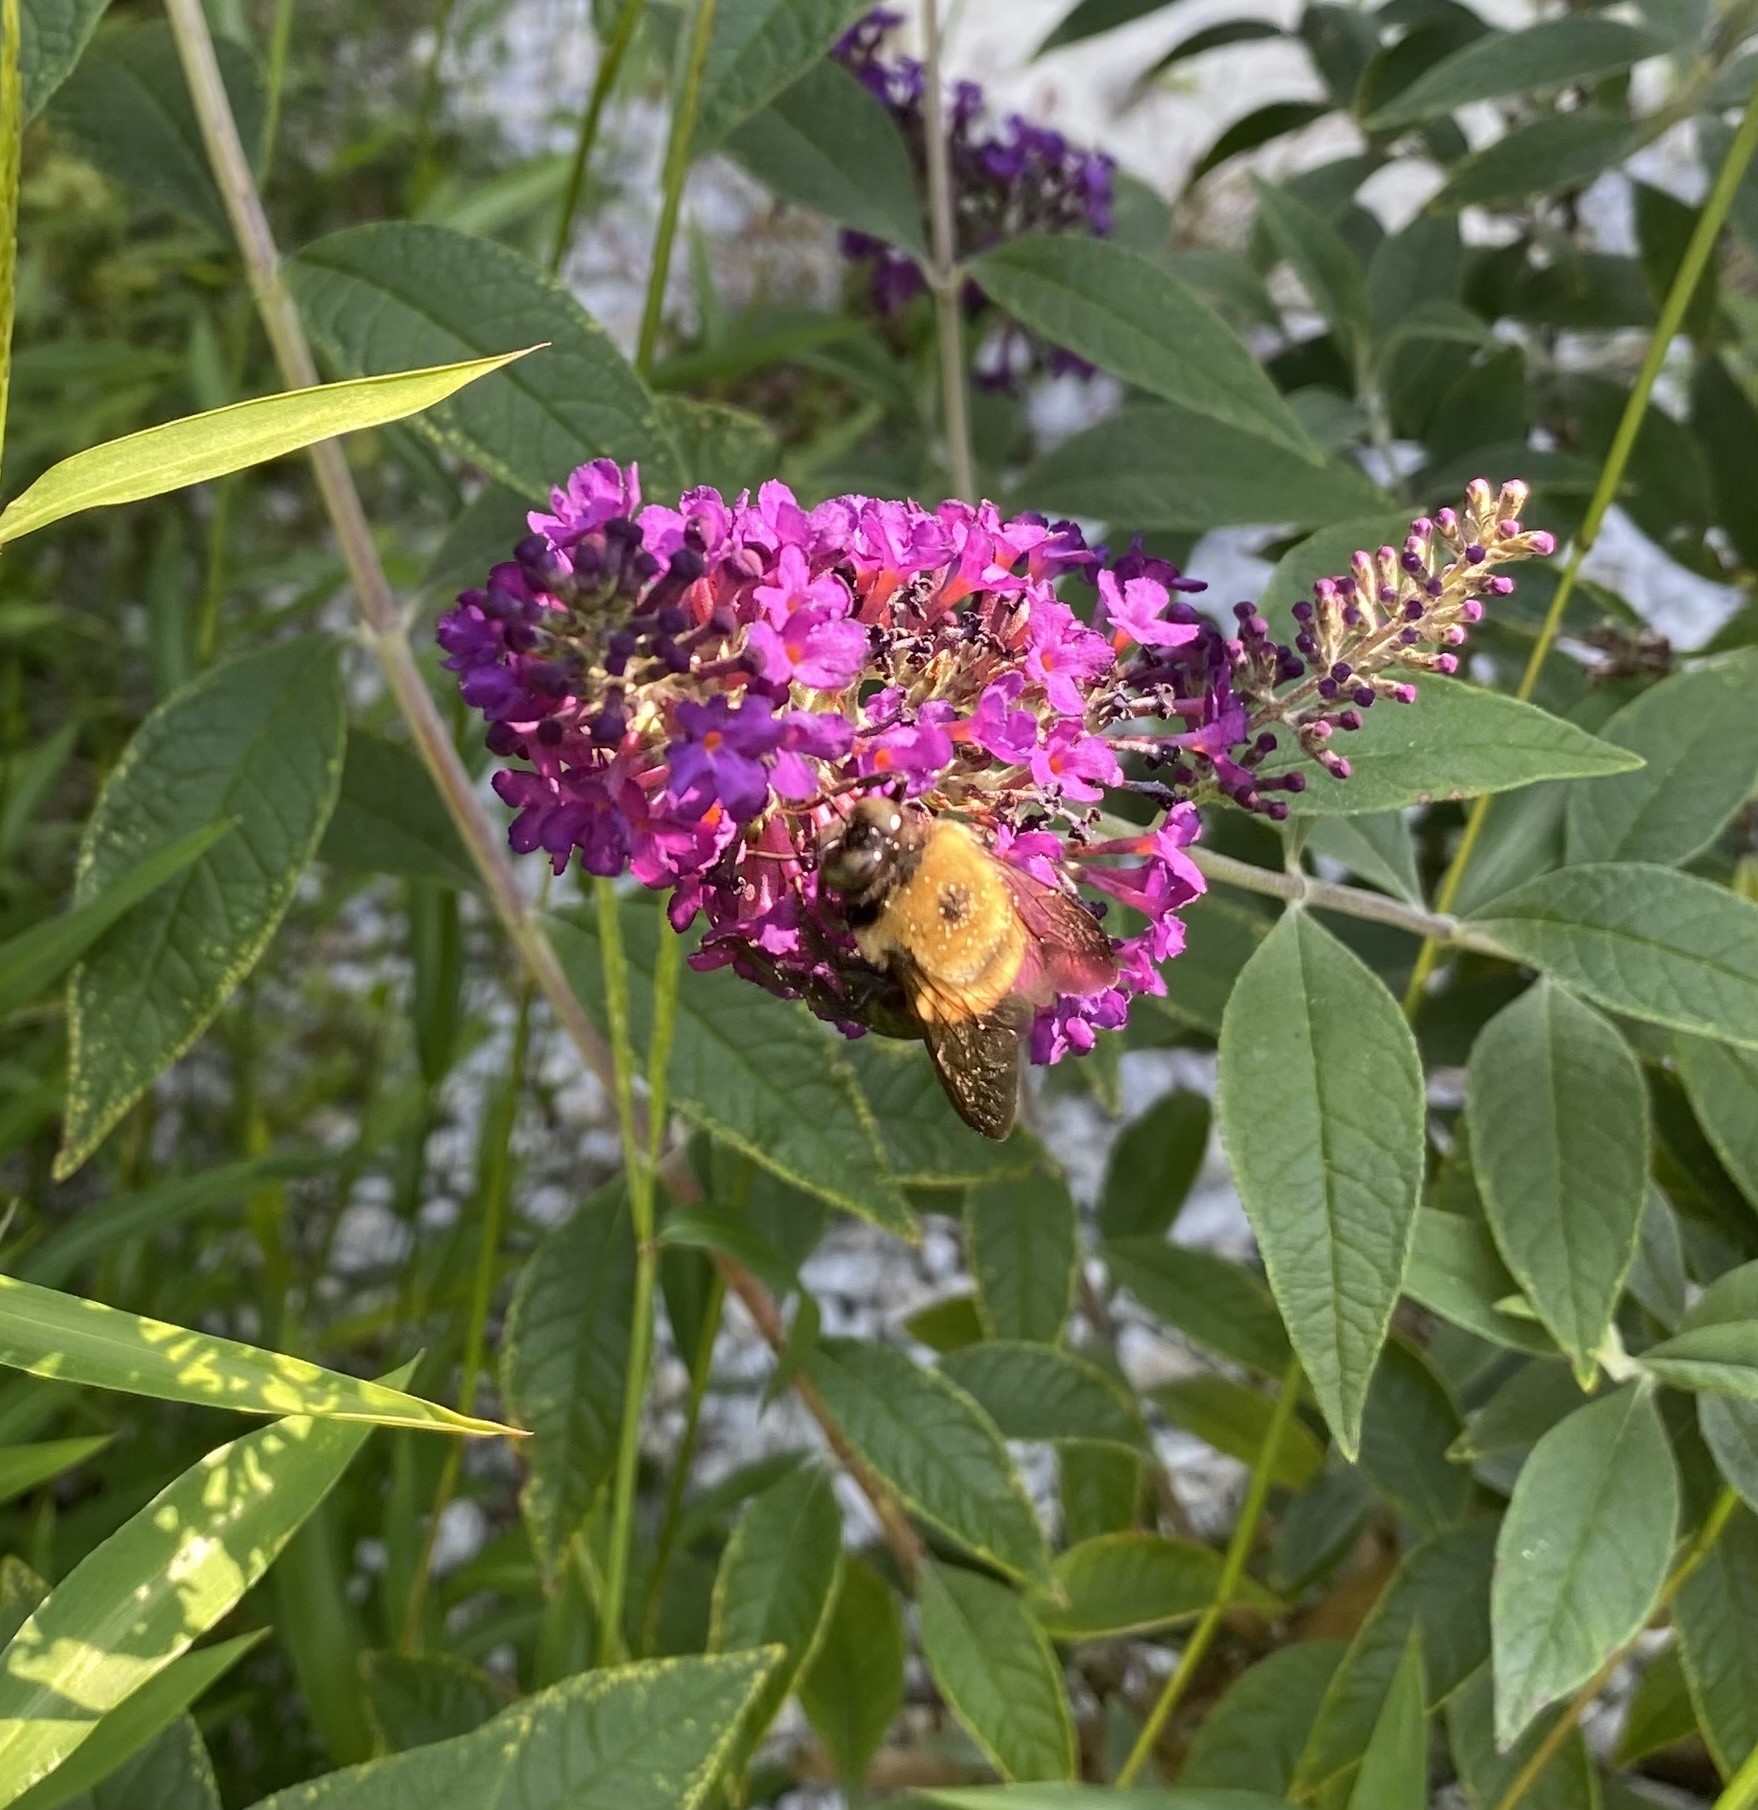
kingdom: Animalia
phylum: Arthropoda
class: Insecta
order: Hymenoptera
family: Apidae
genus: Xylocopa
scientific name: Xylocopa virginica
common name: Carpenter bee
